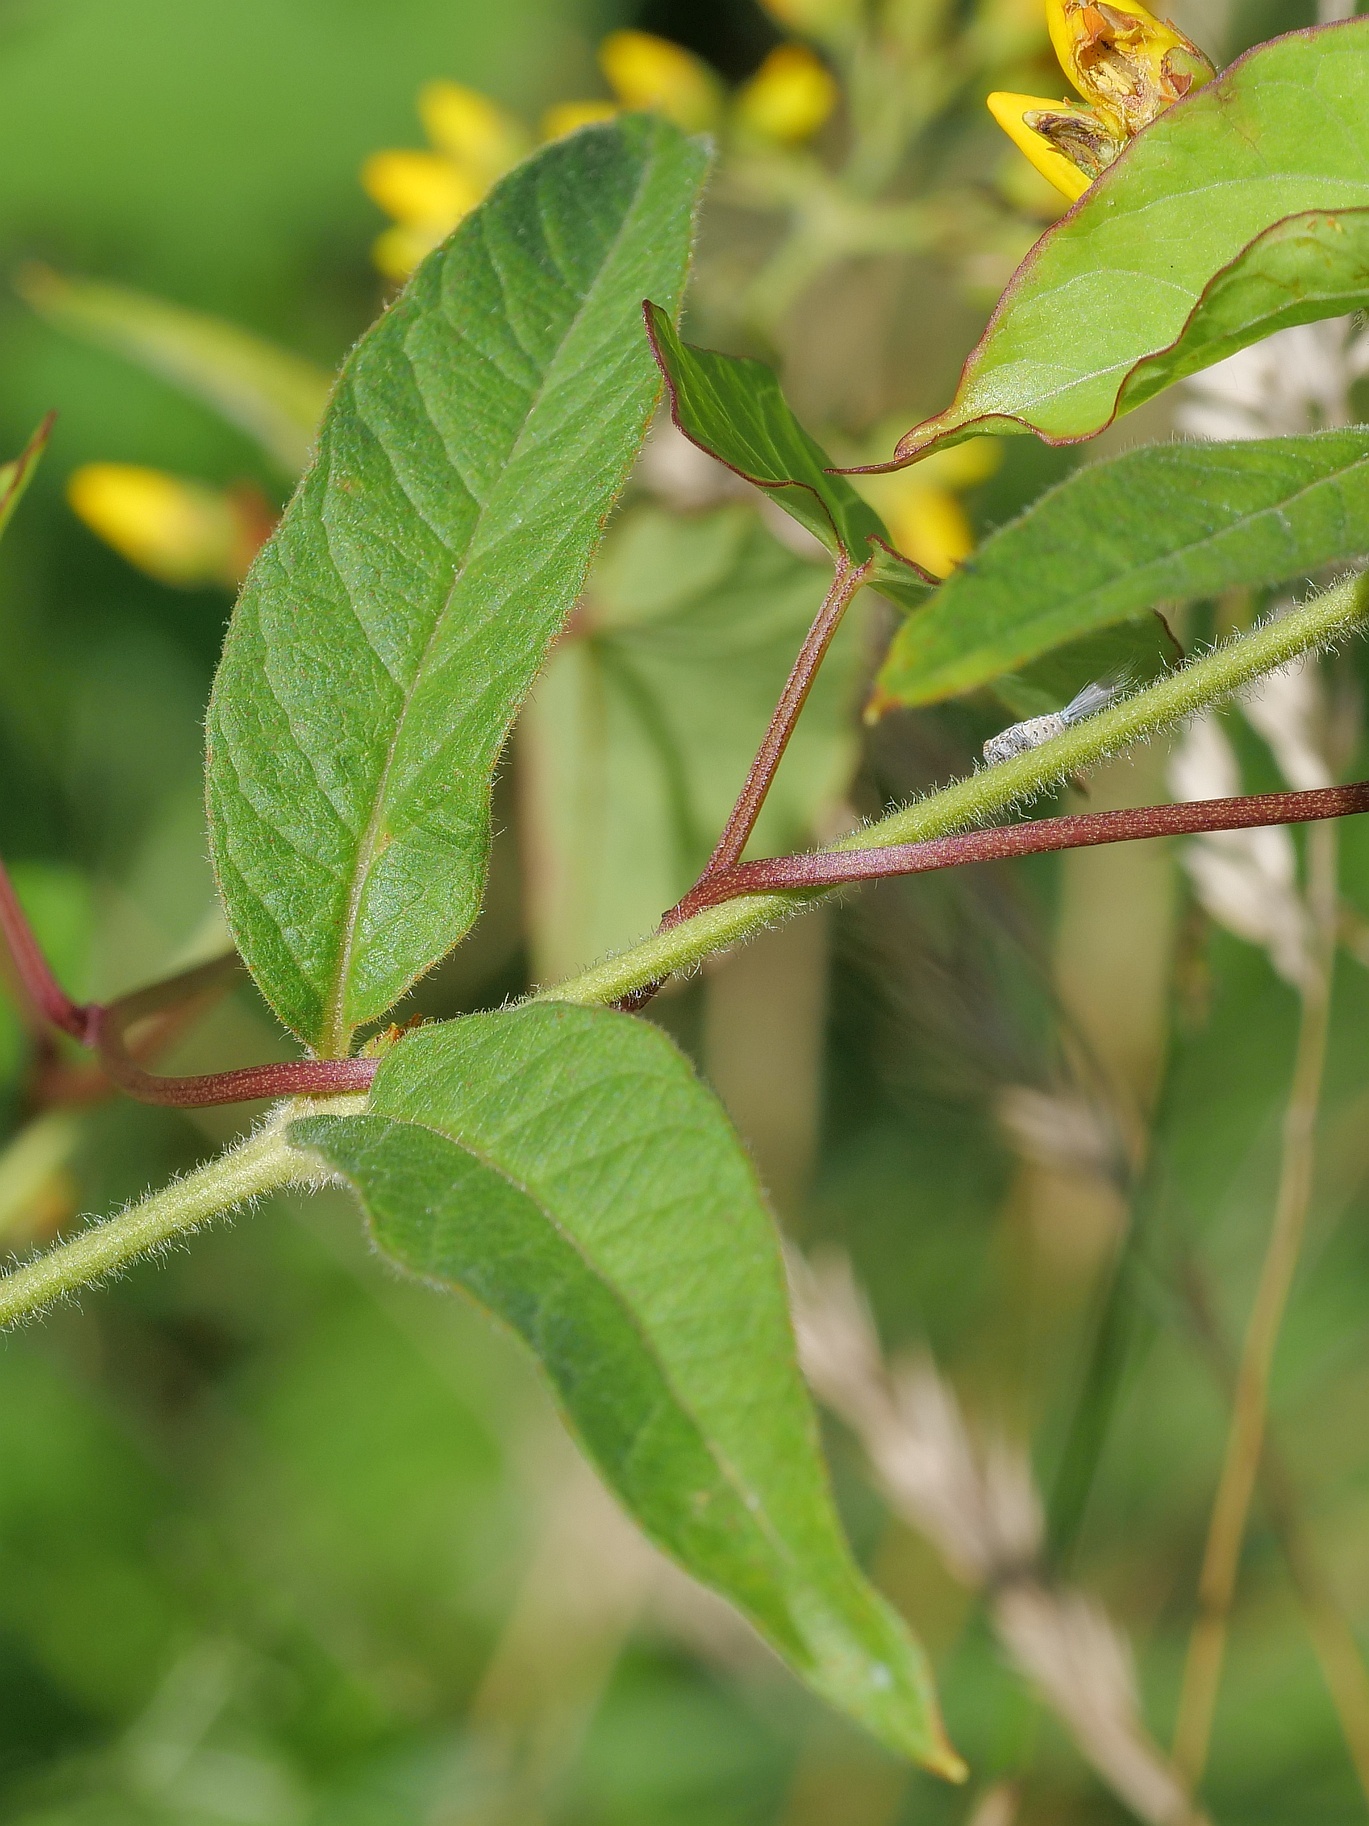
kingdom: Plantae
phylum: Tracheophyta
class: Magnoliopsida
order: Ericales
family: Primulaceae
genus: Lysimachia
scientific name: Lysimachia vulgaris
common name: Yellow loosestrife
